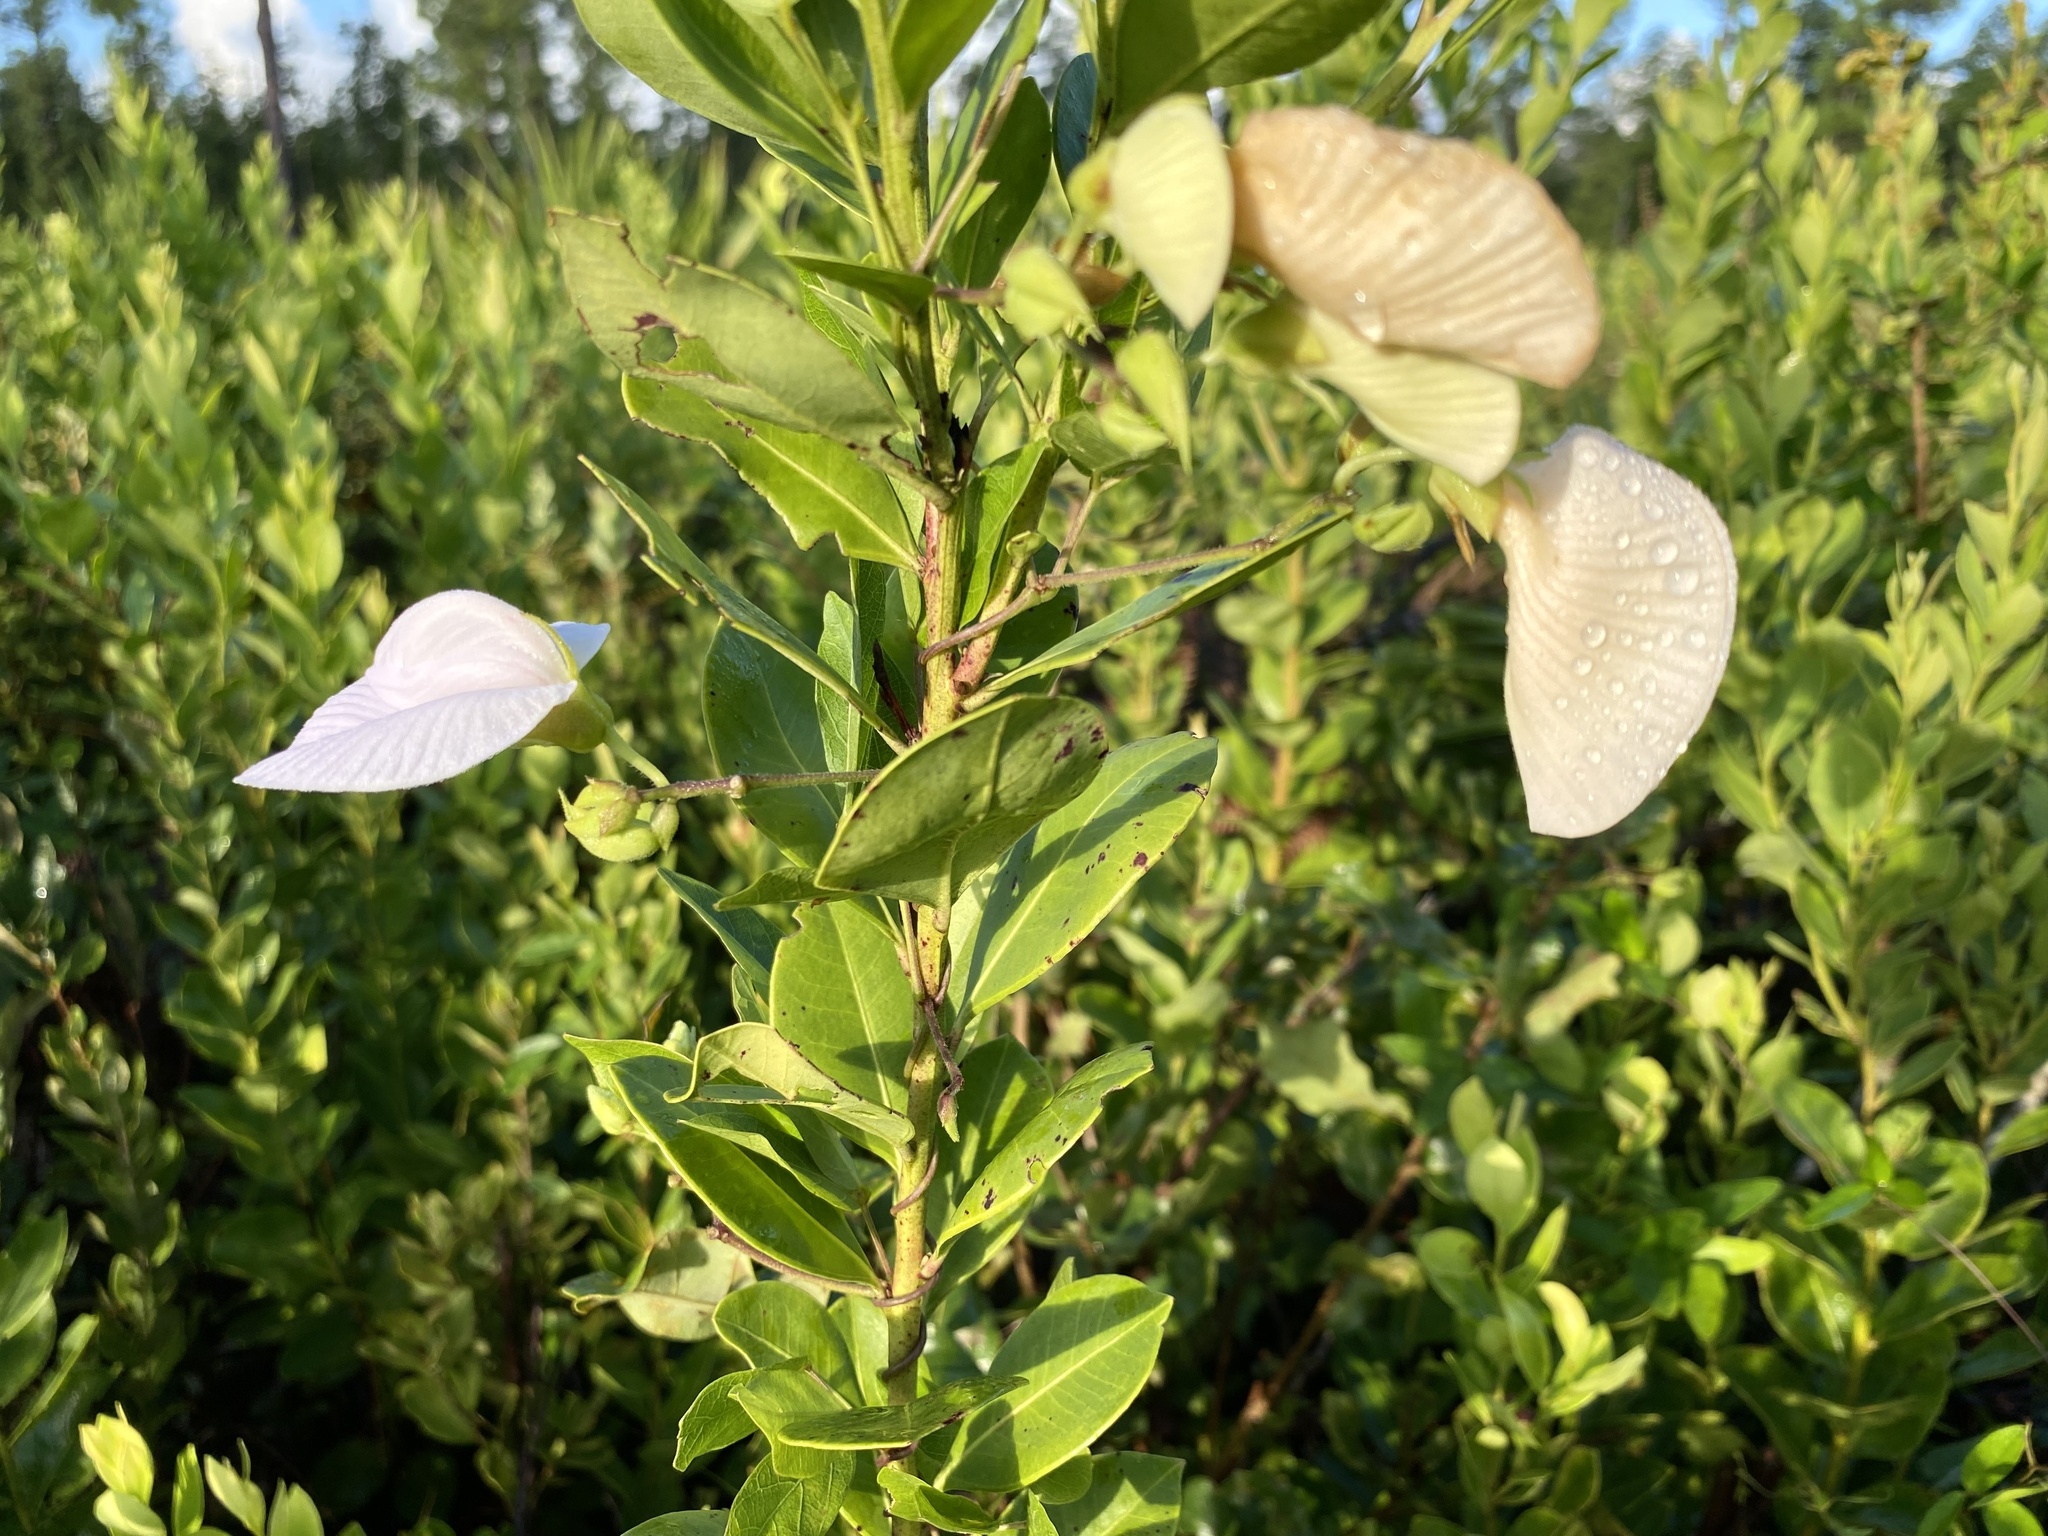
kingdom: Plantae
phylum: Tracheophyta
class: Magnoliopsida
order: Fabales
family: Fabaceae
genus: Centrosema
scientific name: Centrosema arenicola
